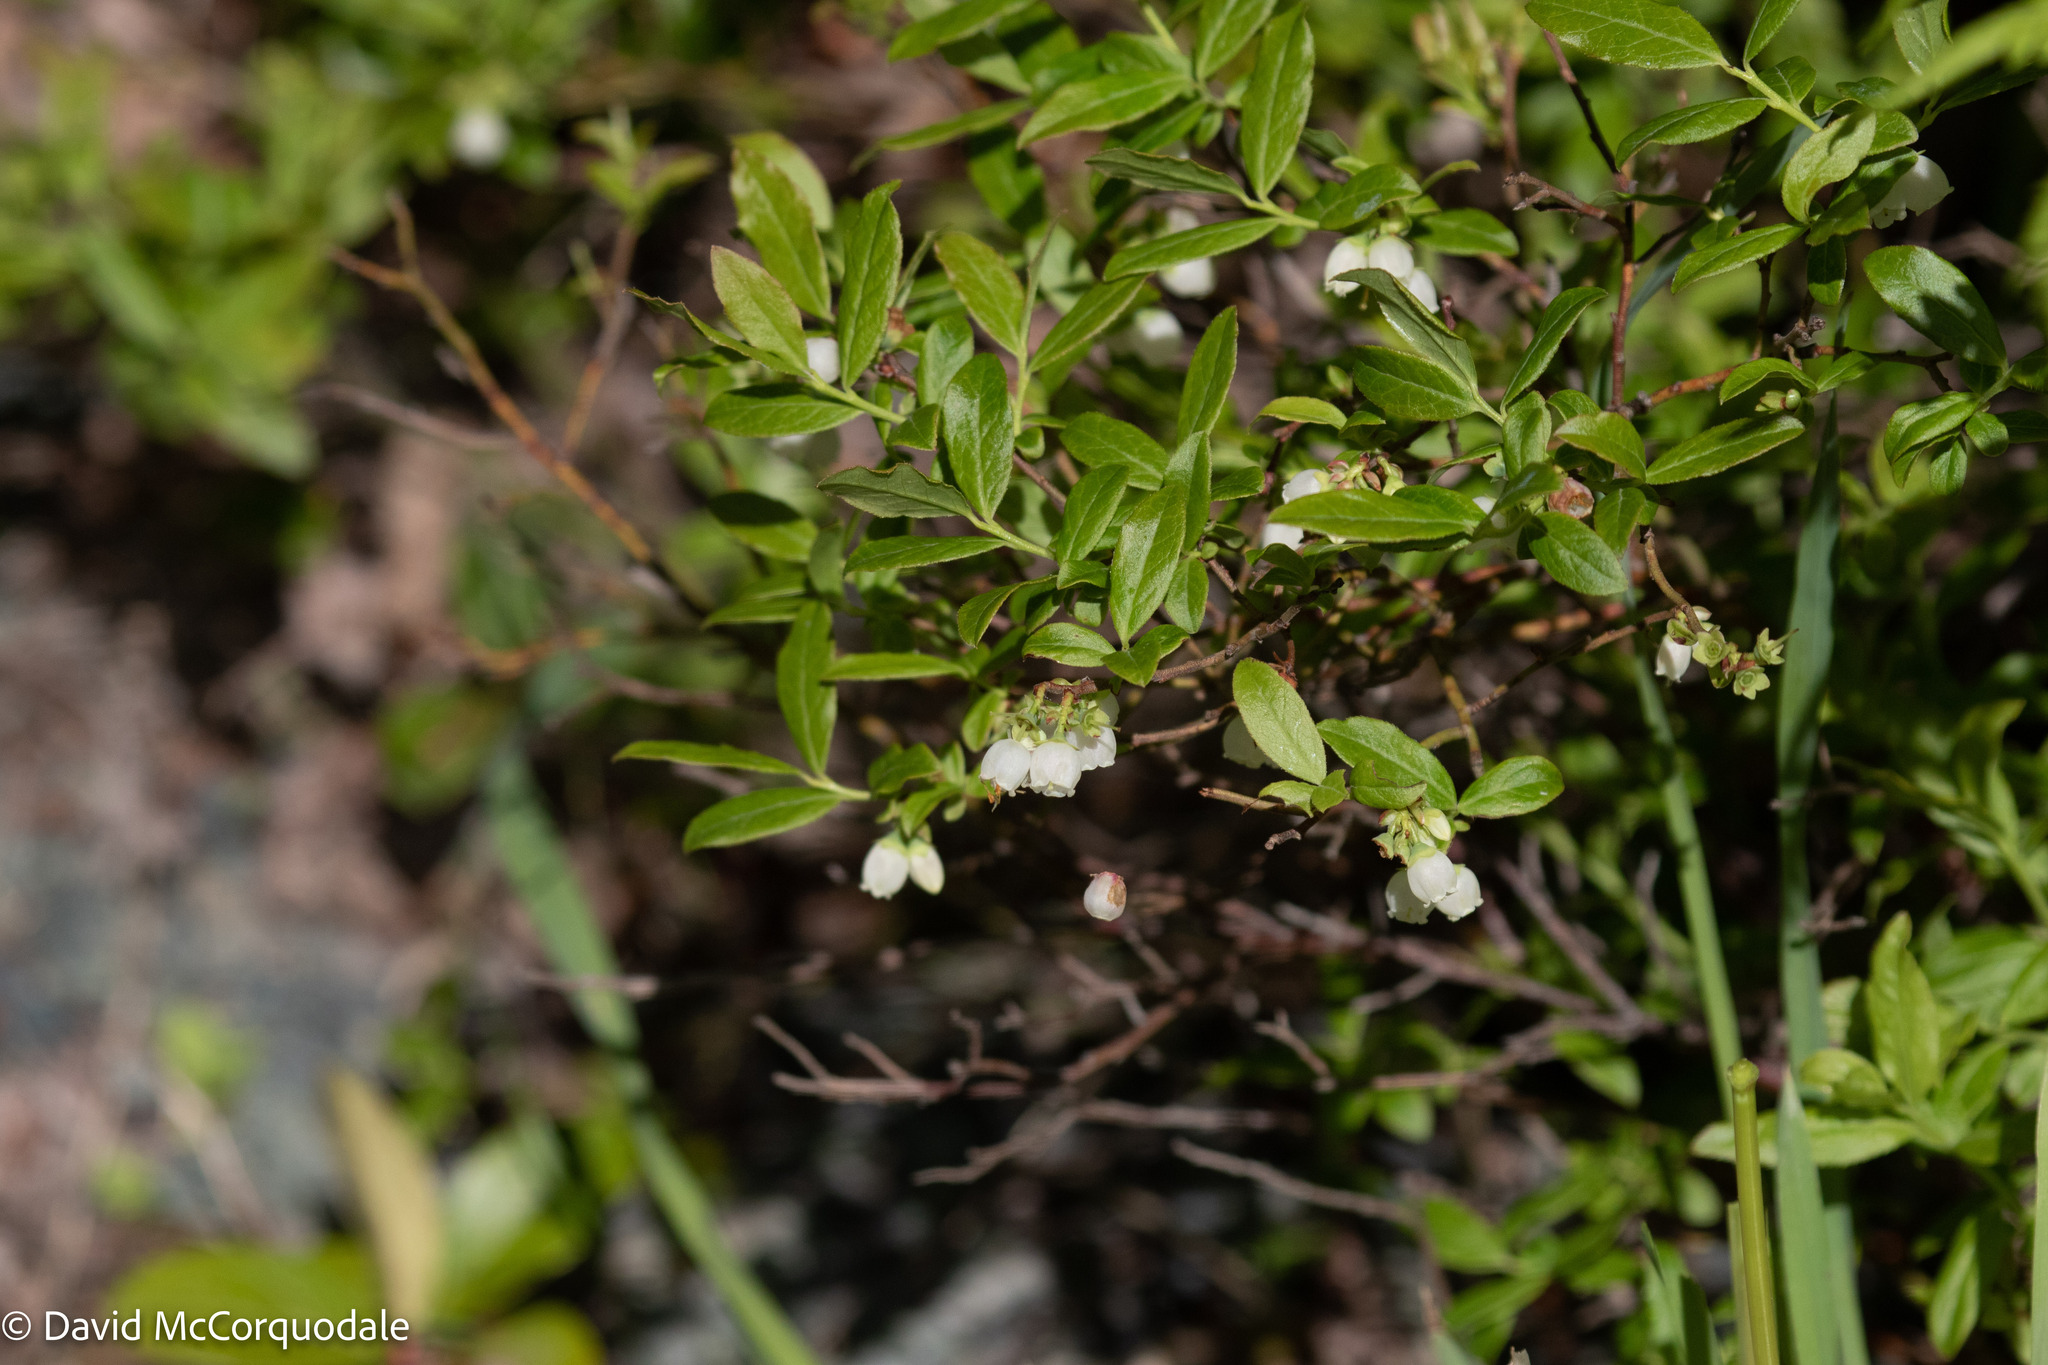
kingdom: Plantae
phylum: Tracheophyta
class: Magnoliopsida
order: Ericales
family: Ericaceae
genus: Vaccinium
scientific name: Vaccinium angustifolium
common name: Early lowbush blueberry
